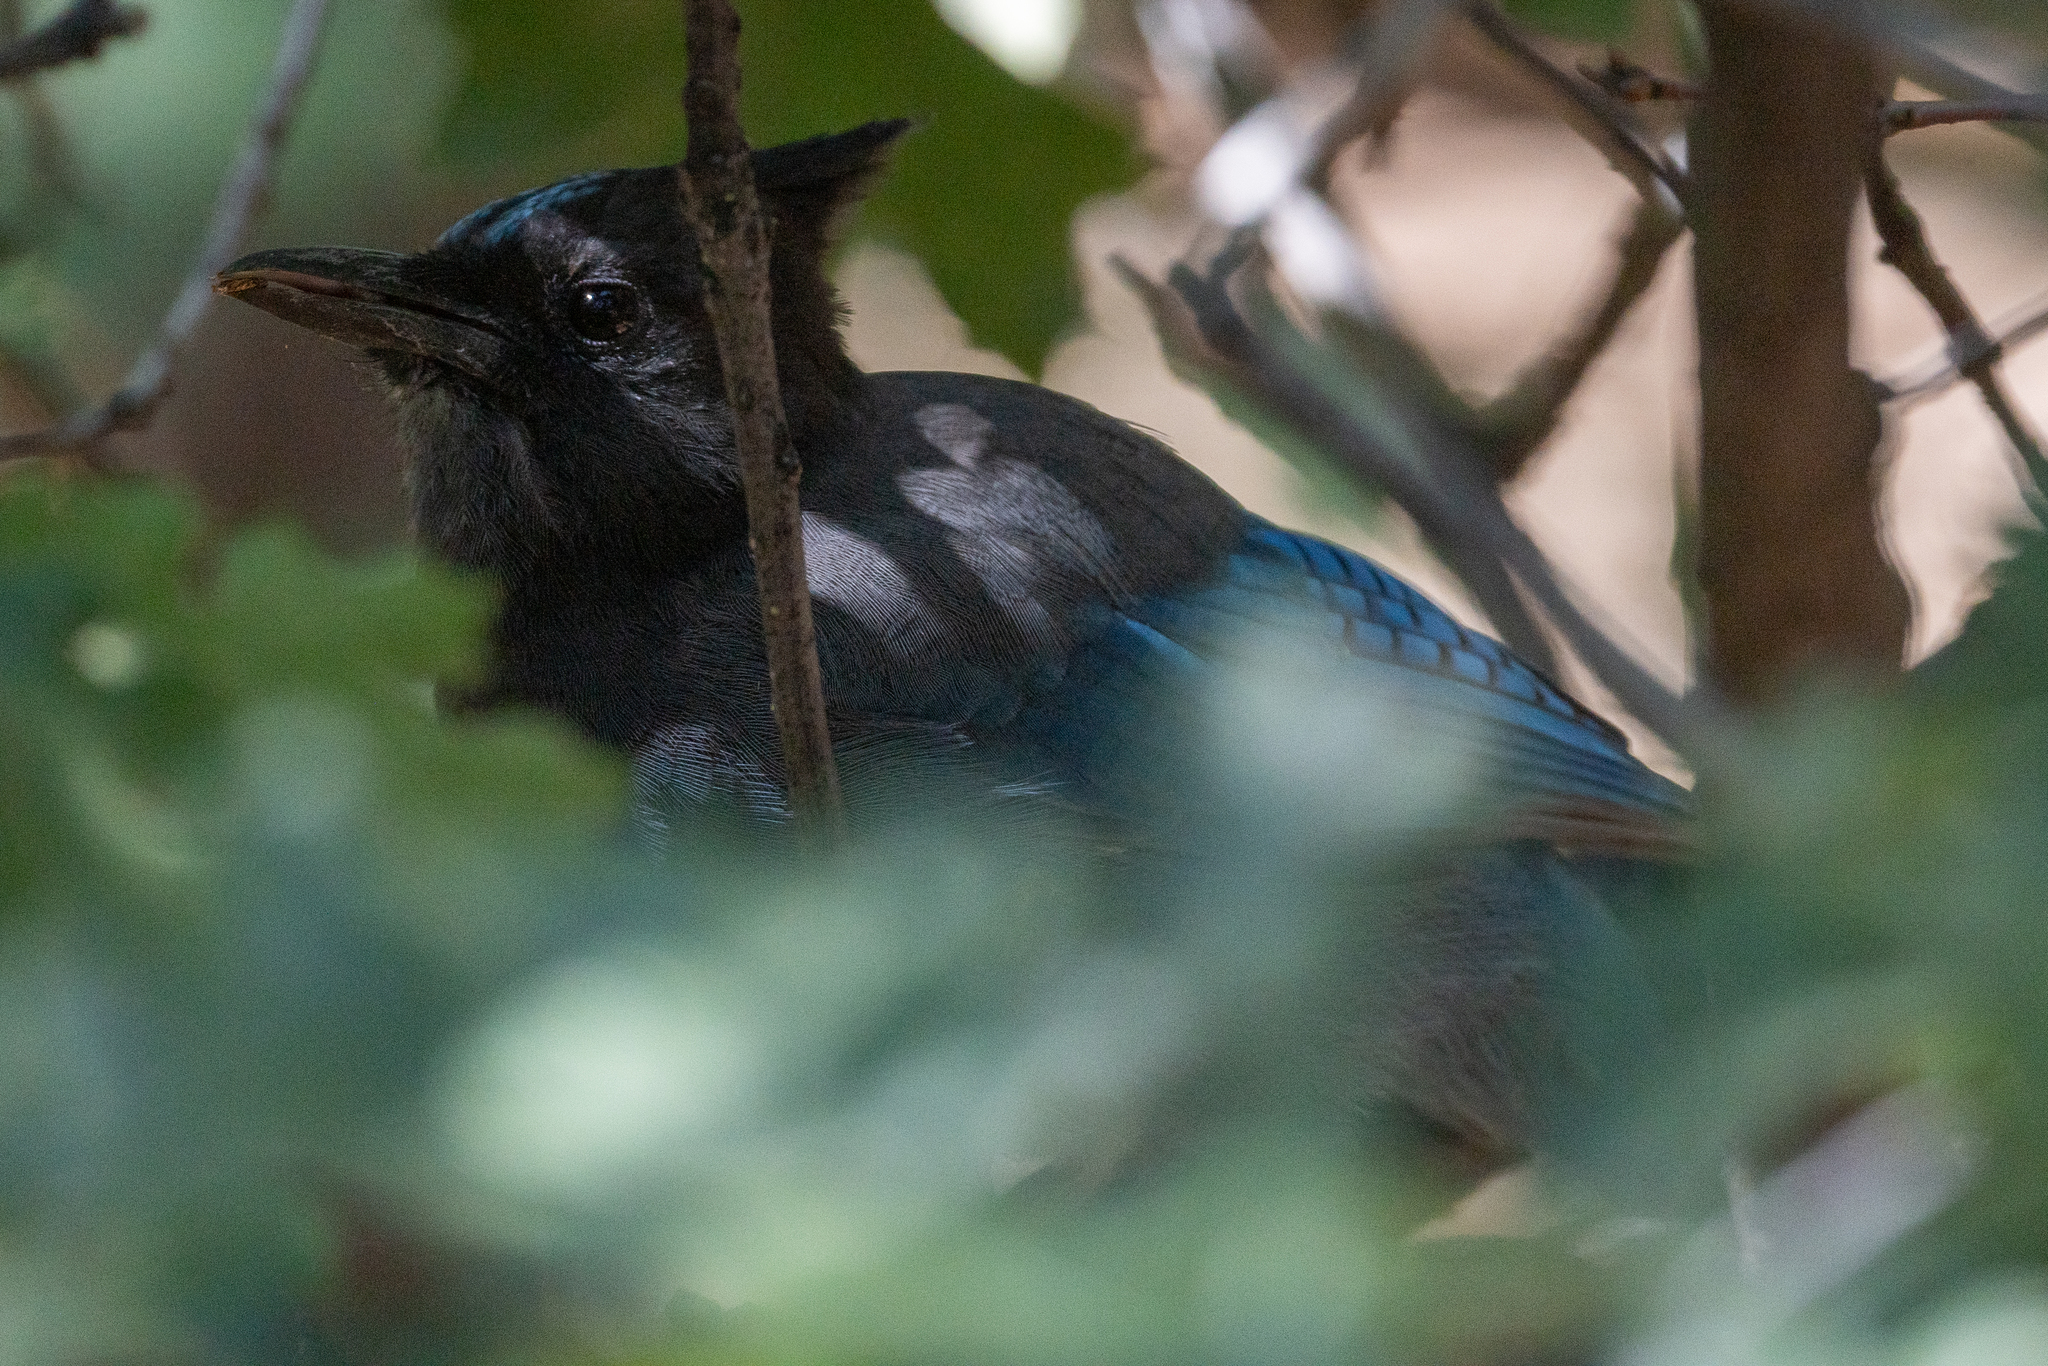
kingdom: Animalia
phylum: Chordata
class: Aves
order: Passeriformes
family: Corvidae
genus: Cyanocitta
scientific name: Cyanocitta stelleri
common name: Steller's jay
